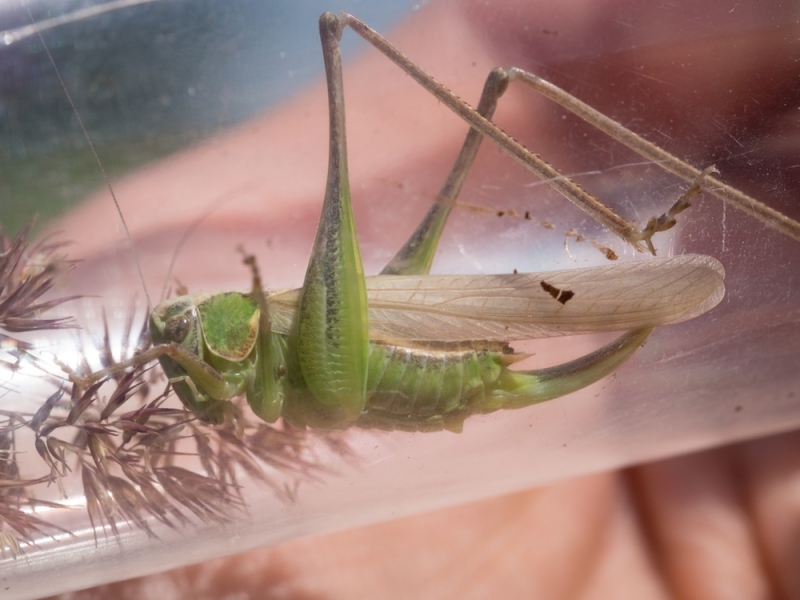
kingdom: Animalia
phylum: Arthropoda
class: Insecta
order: Orthoptera
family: Tettigoniidae
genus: Platycleis
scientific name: Platycleis affinis
